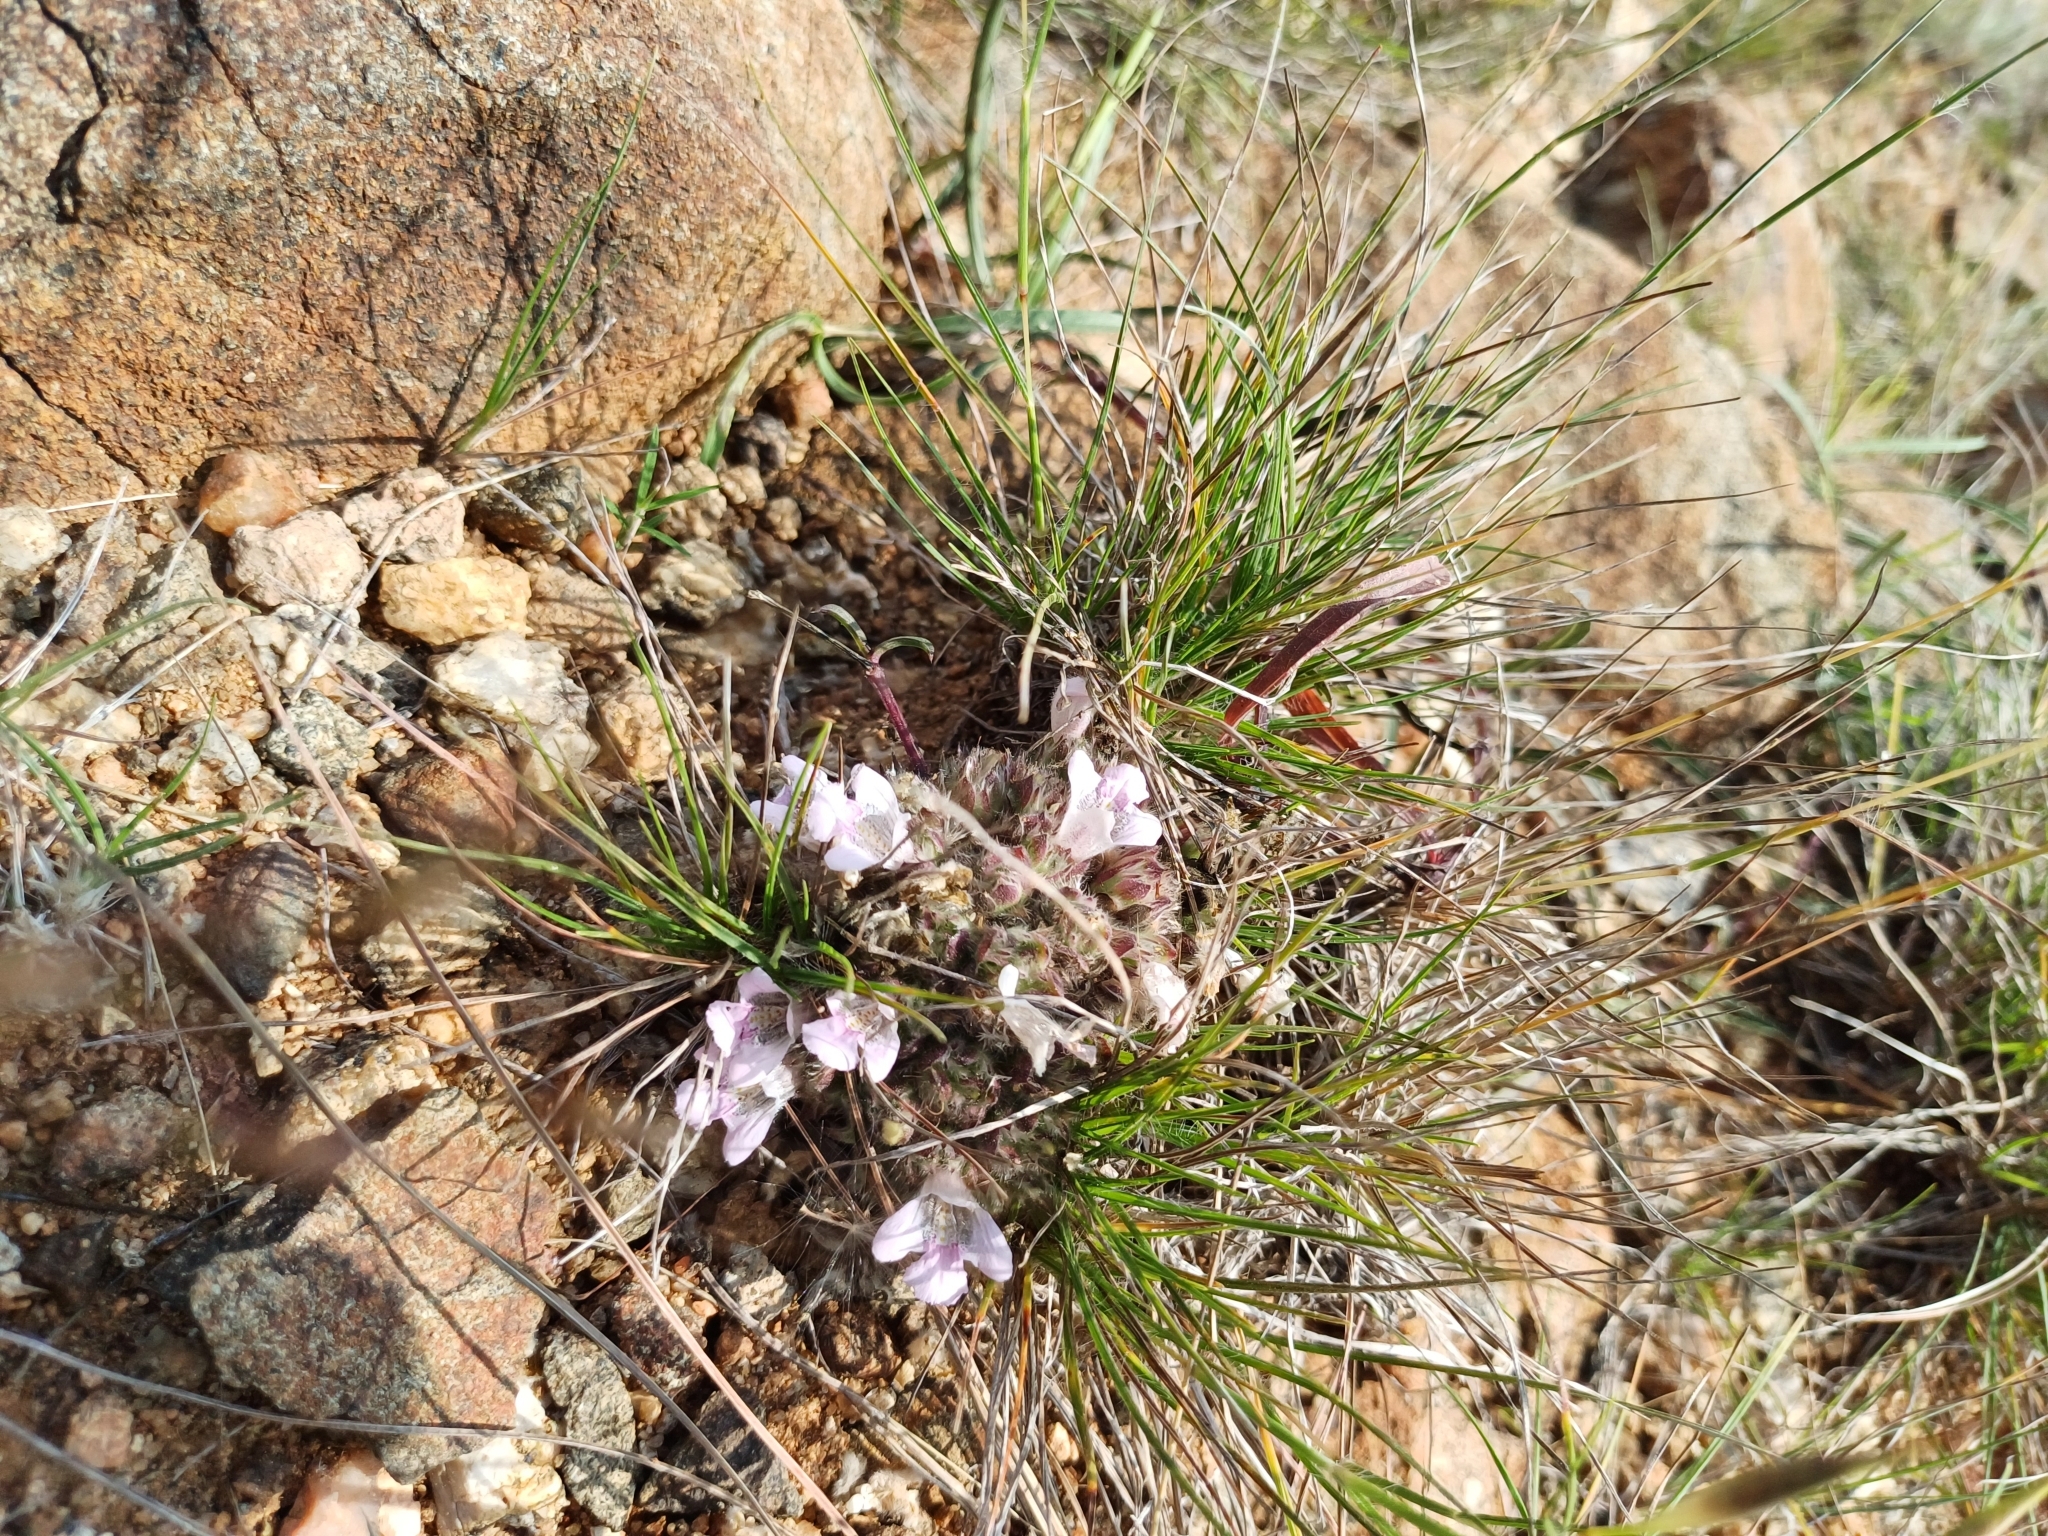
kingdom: Plantae
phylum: Tracheophyta
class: Magnoliopsida
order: Lamiales
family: Acanthaceae
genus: Lepidagathis
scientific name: Lepidagathis cristata
